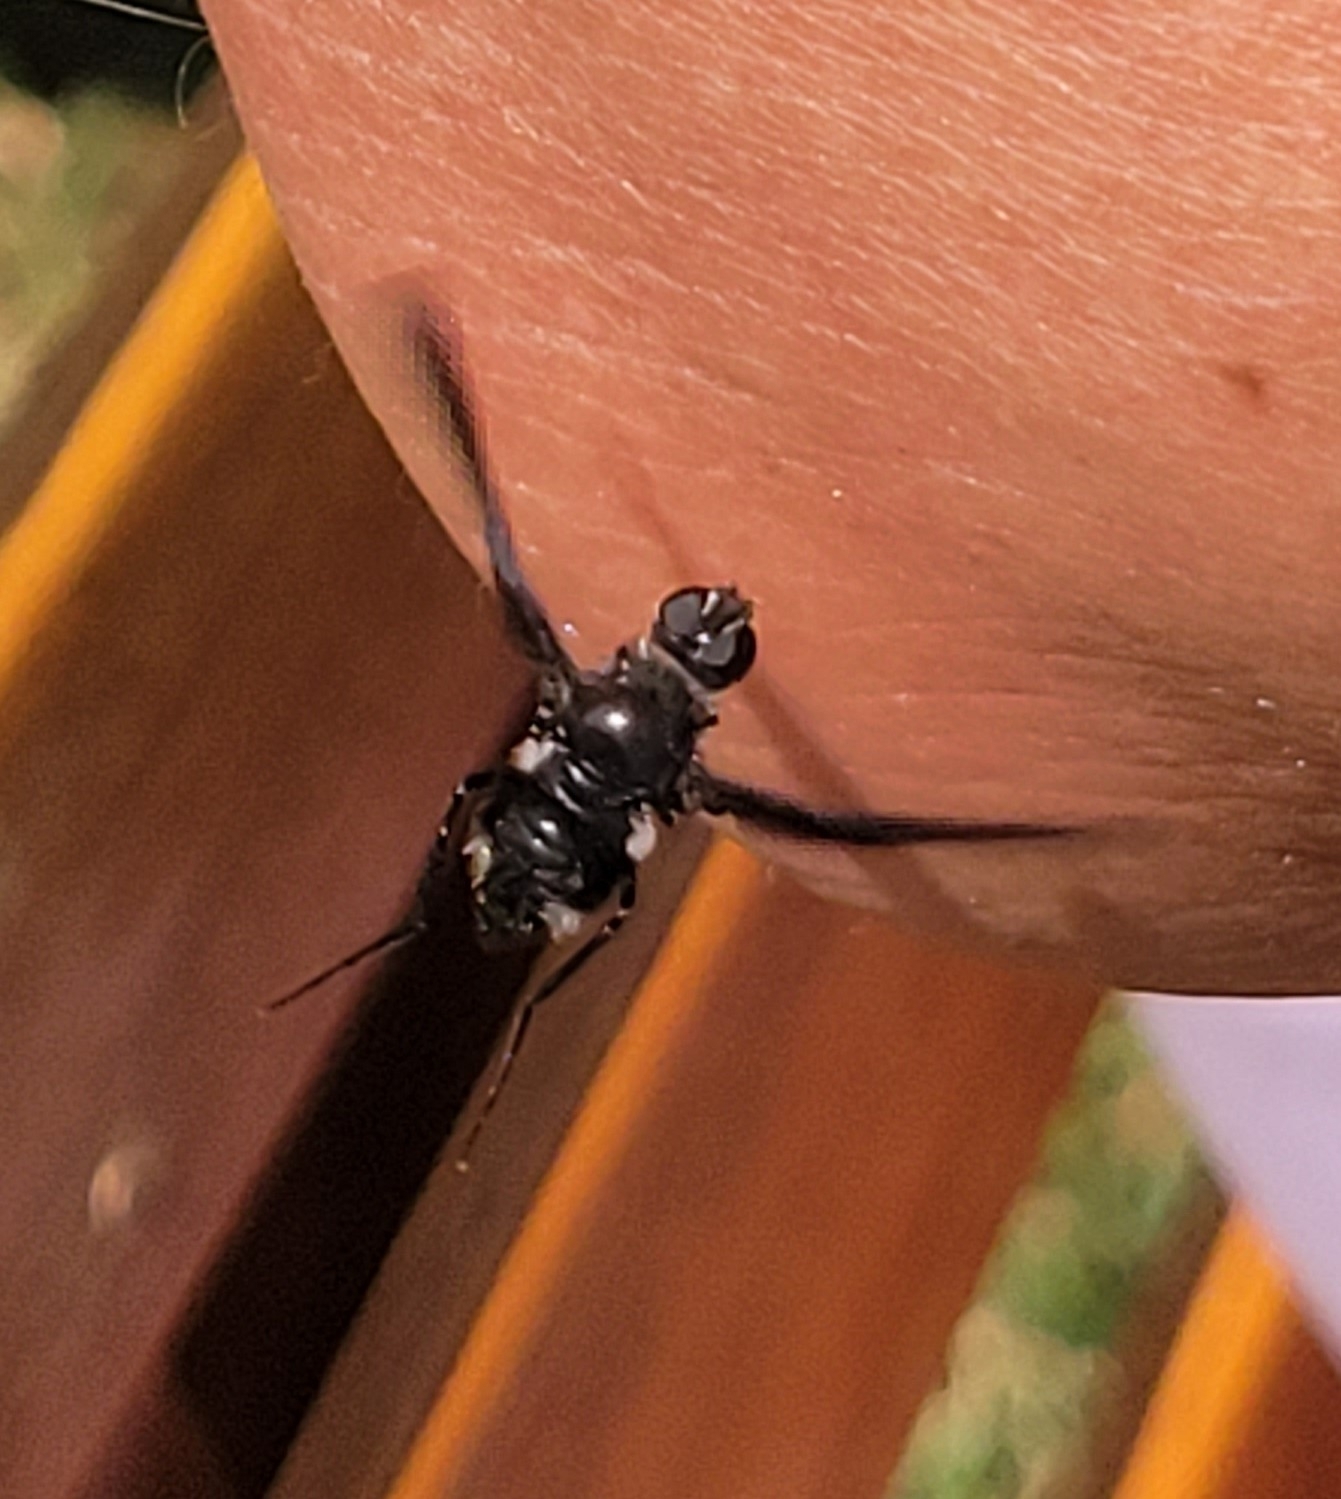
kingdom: Animalia
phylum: Arthropoda
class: Insecta
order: Diptera
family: Bombyliidae
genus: Brachyanax
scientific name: Brachyanax aterrimus
